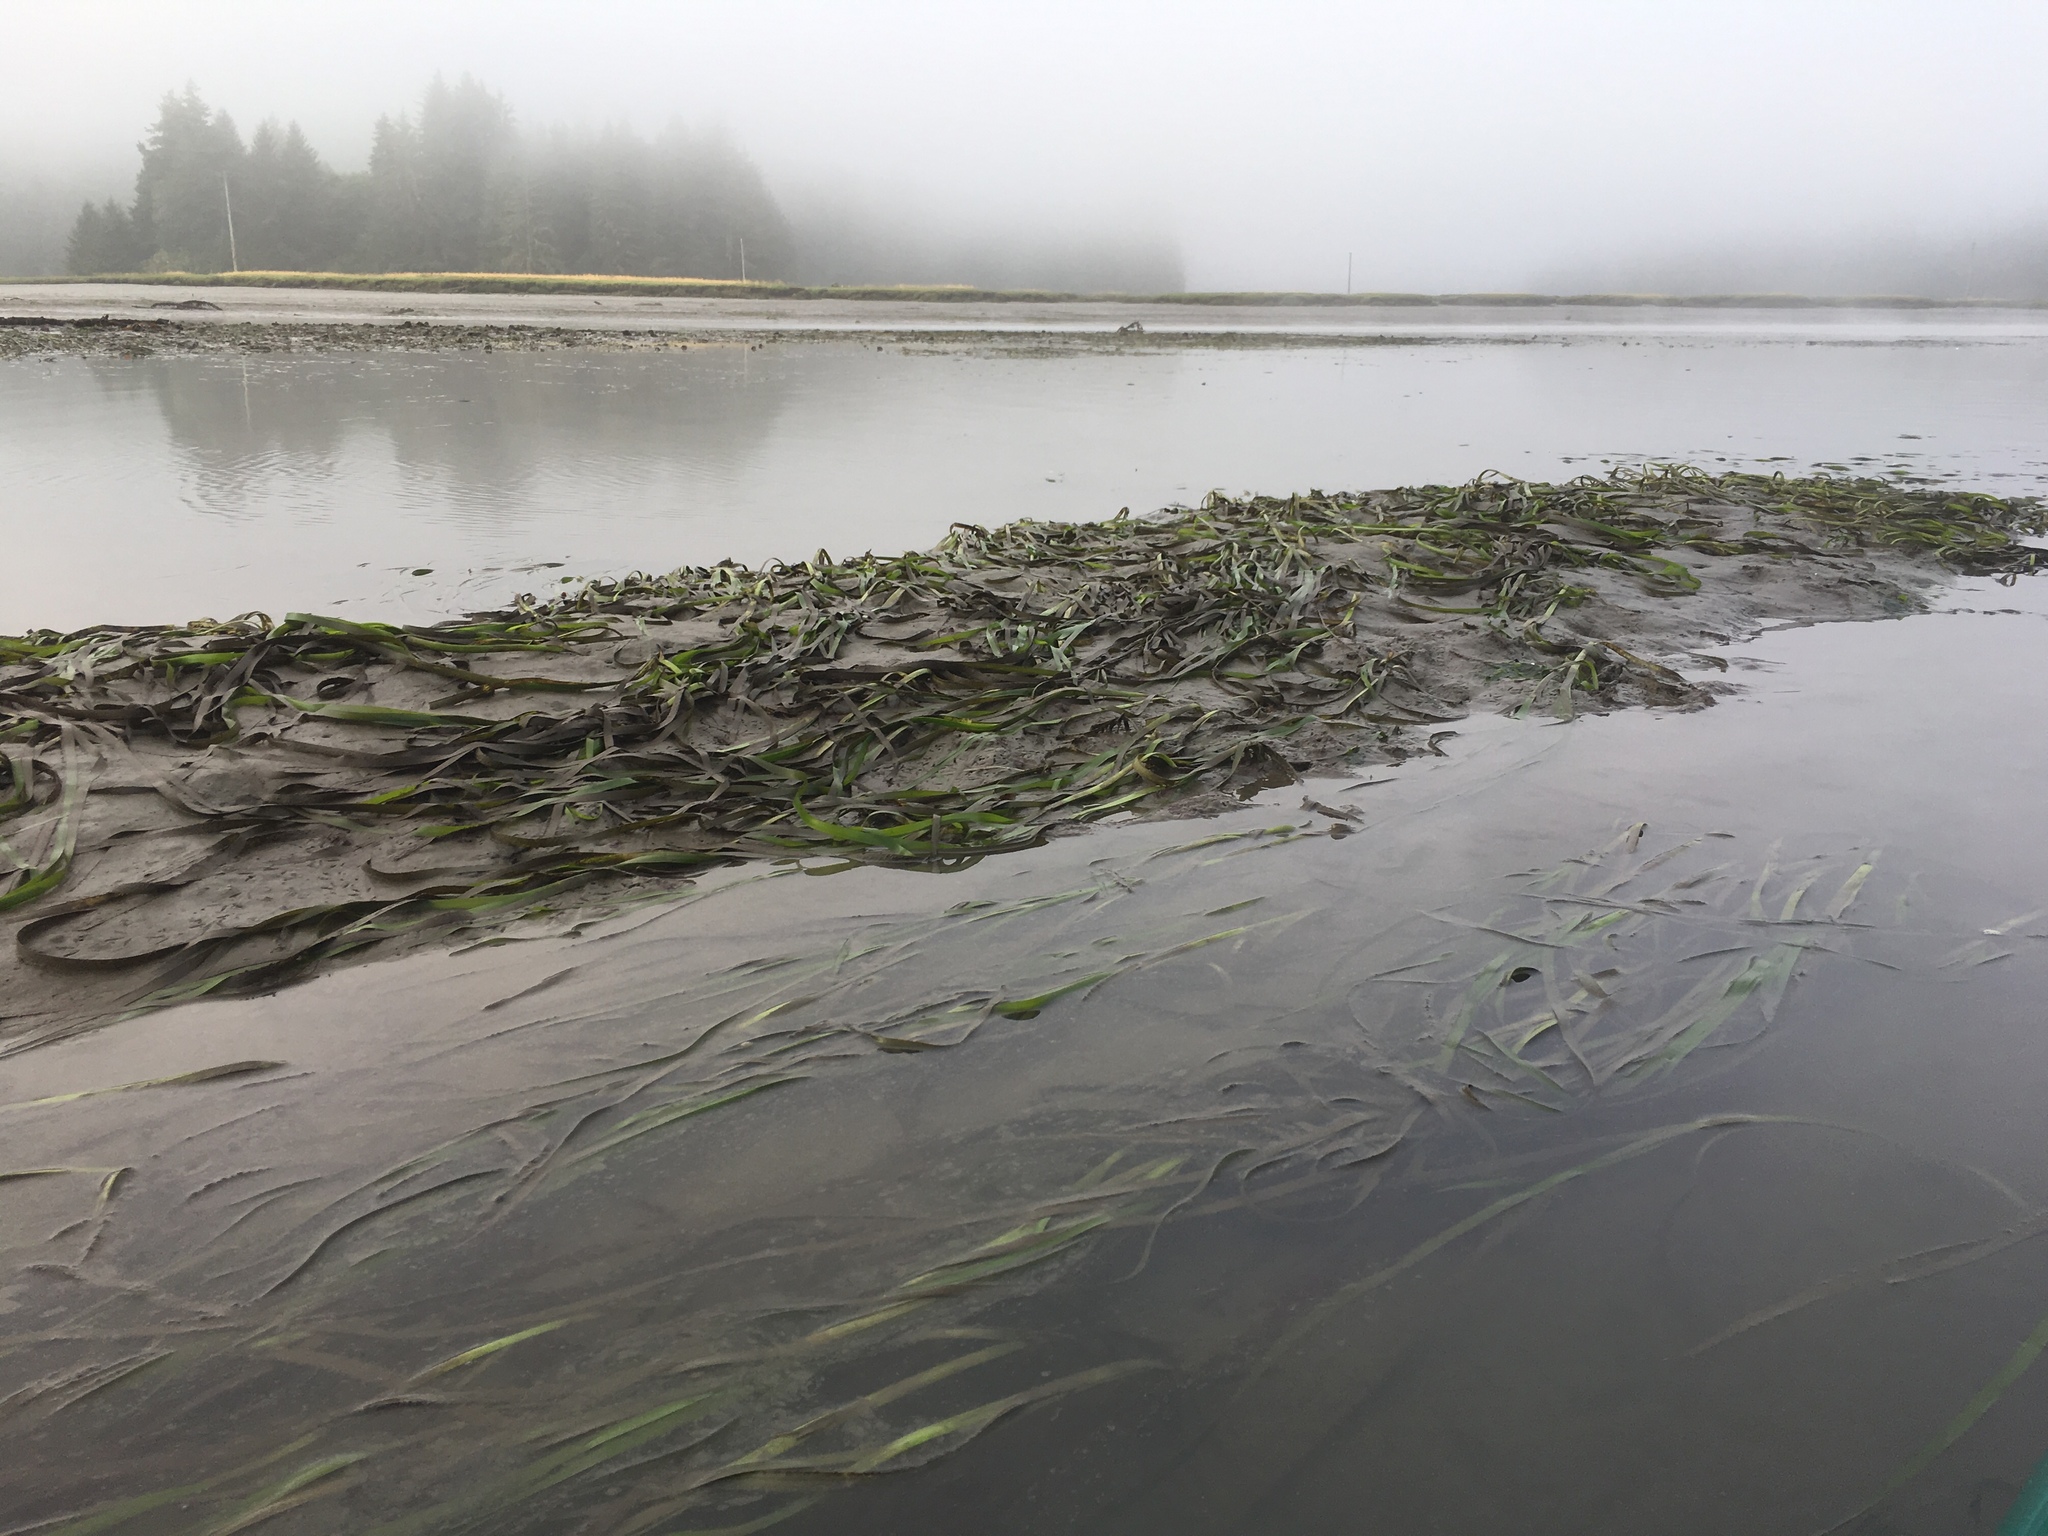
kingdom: Plantae
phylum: Tracheophyta
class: Liliopsida
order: Alismatales
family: Zosteraceae
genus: Zostera
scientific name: Zostera marina
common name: Eelgrass
